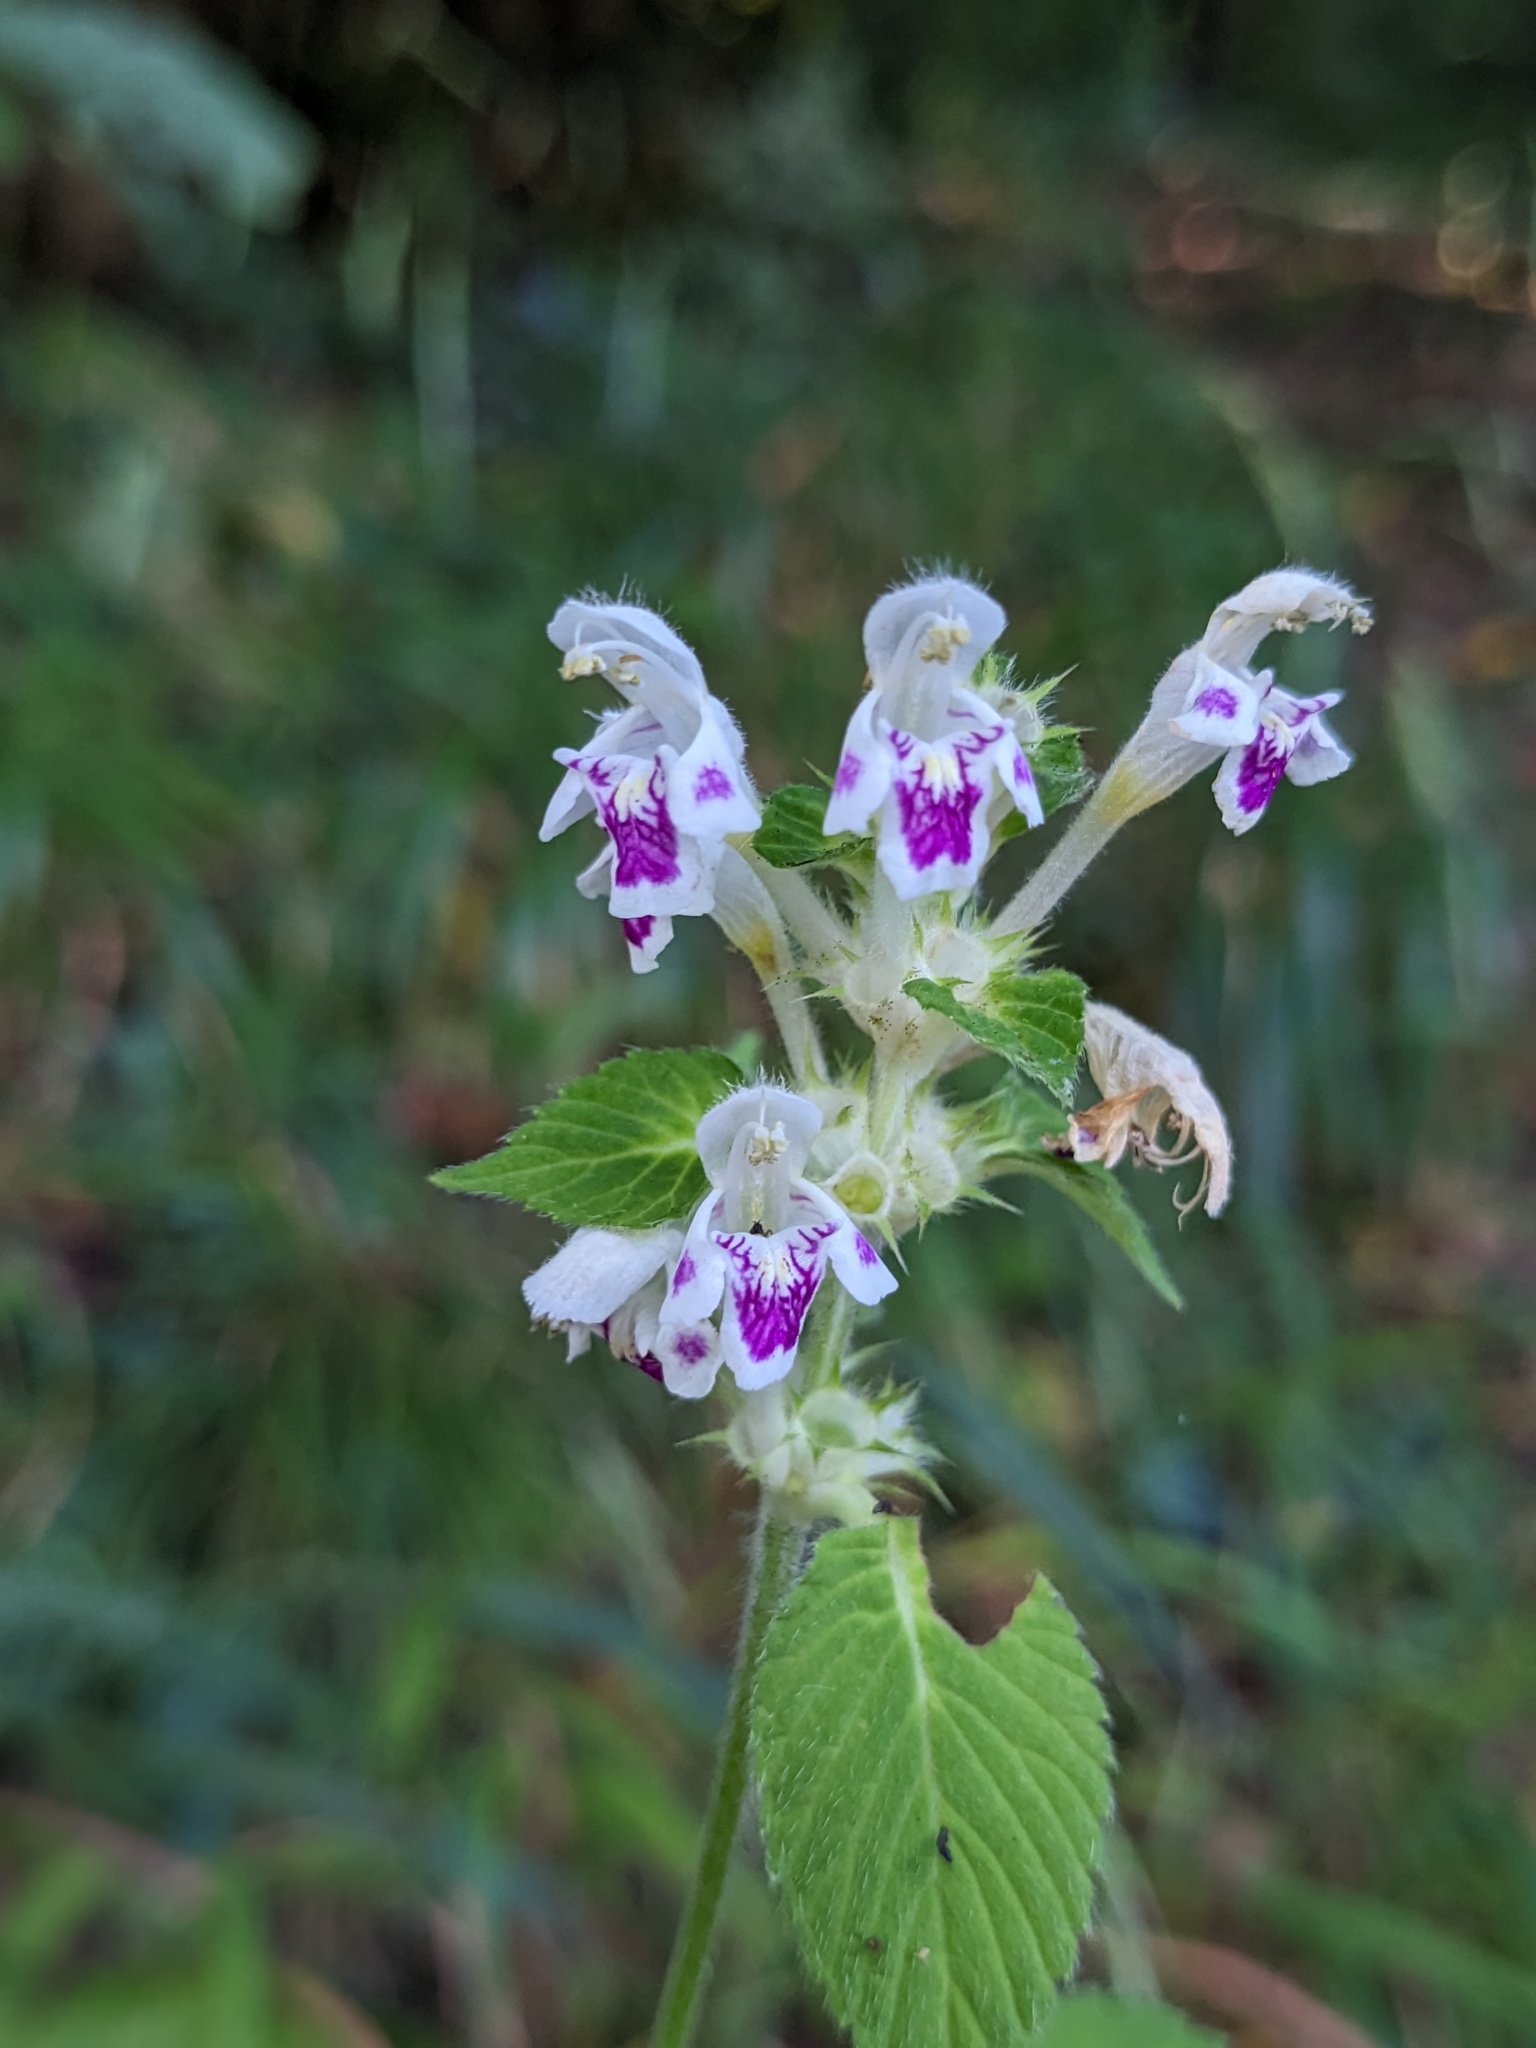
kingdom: Plantae
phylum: Tracheophyta
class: Magnoliopsida
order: Lamiales
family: Lamiaceae
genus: Galeopsis
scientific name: Galeopsis pubescens
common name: Downy hemp-nettle
